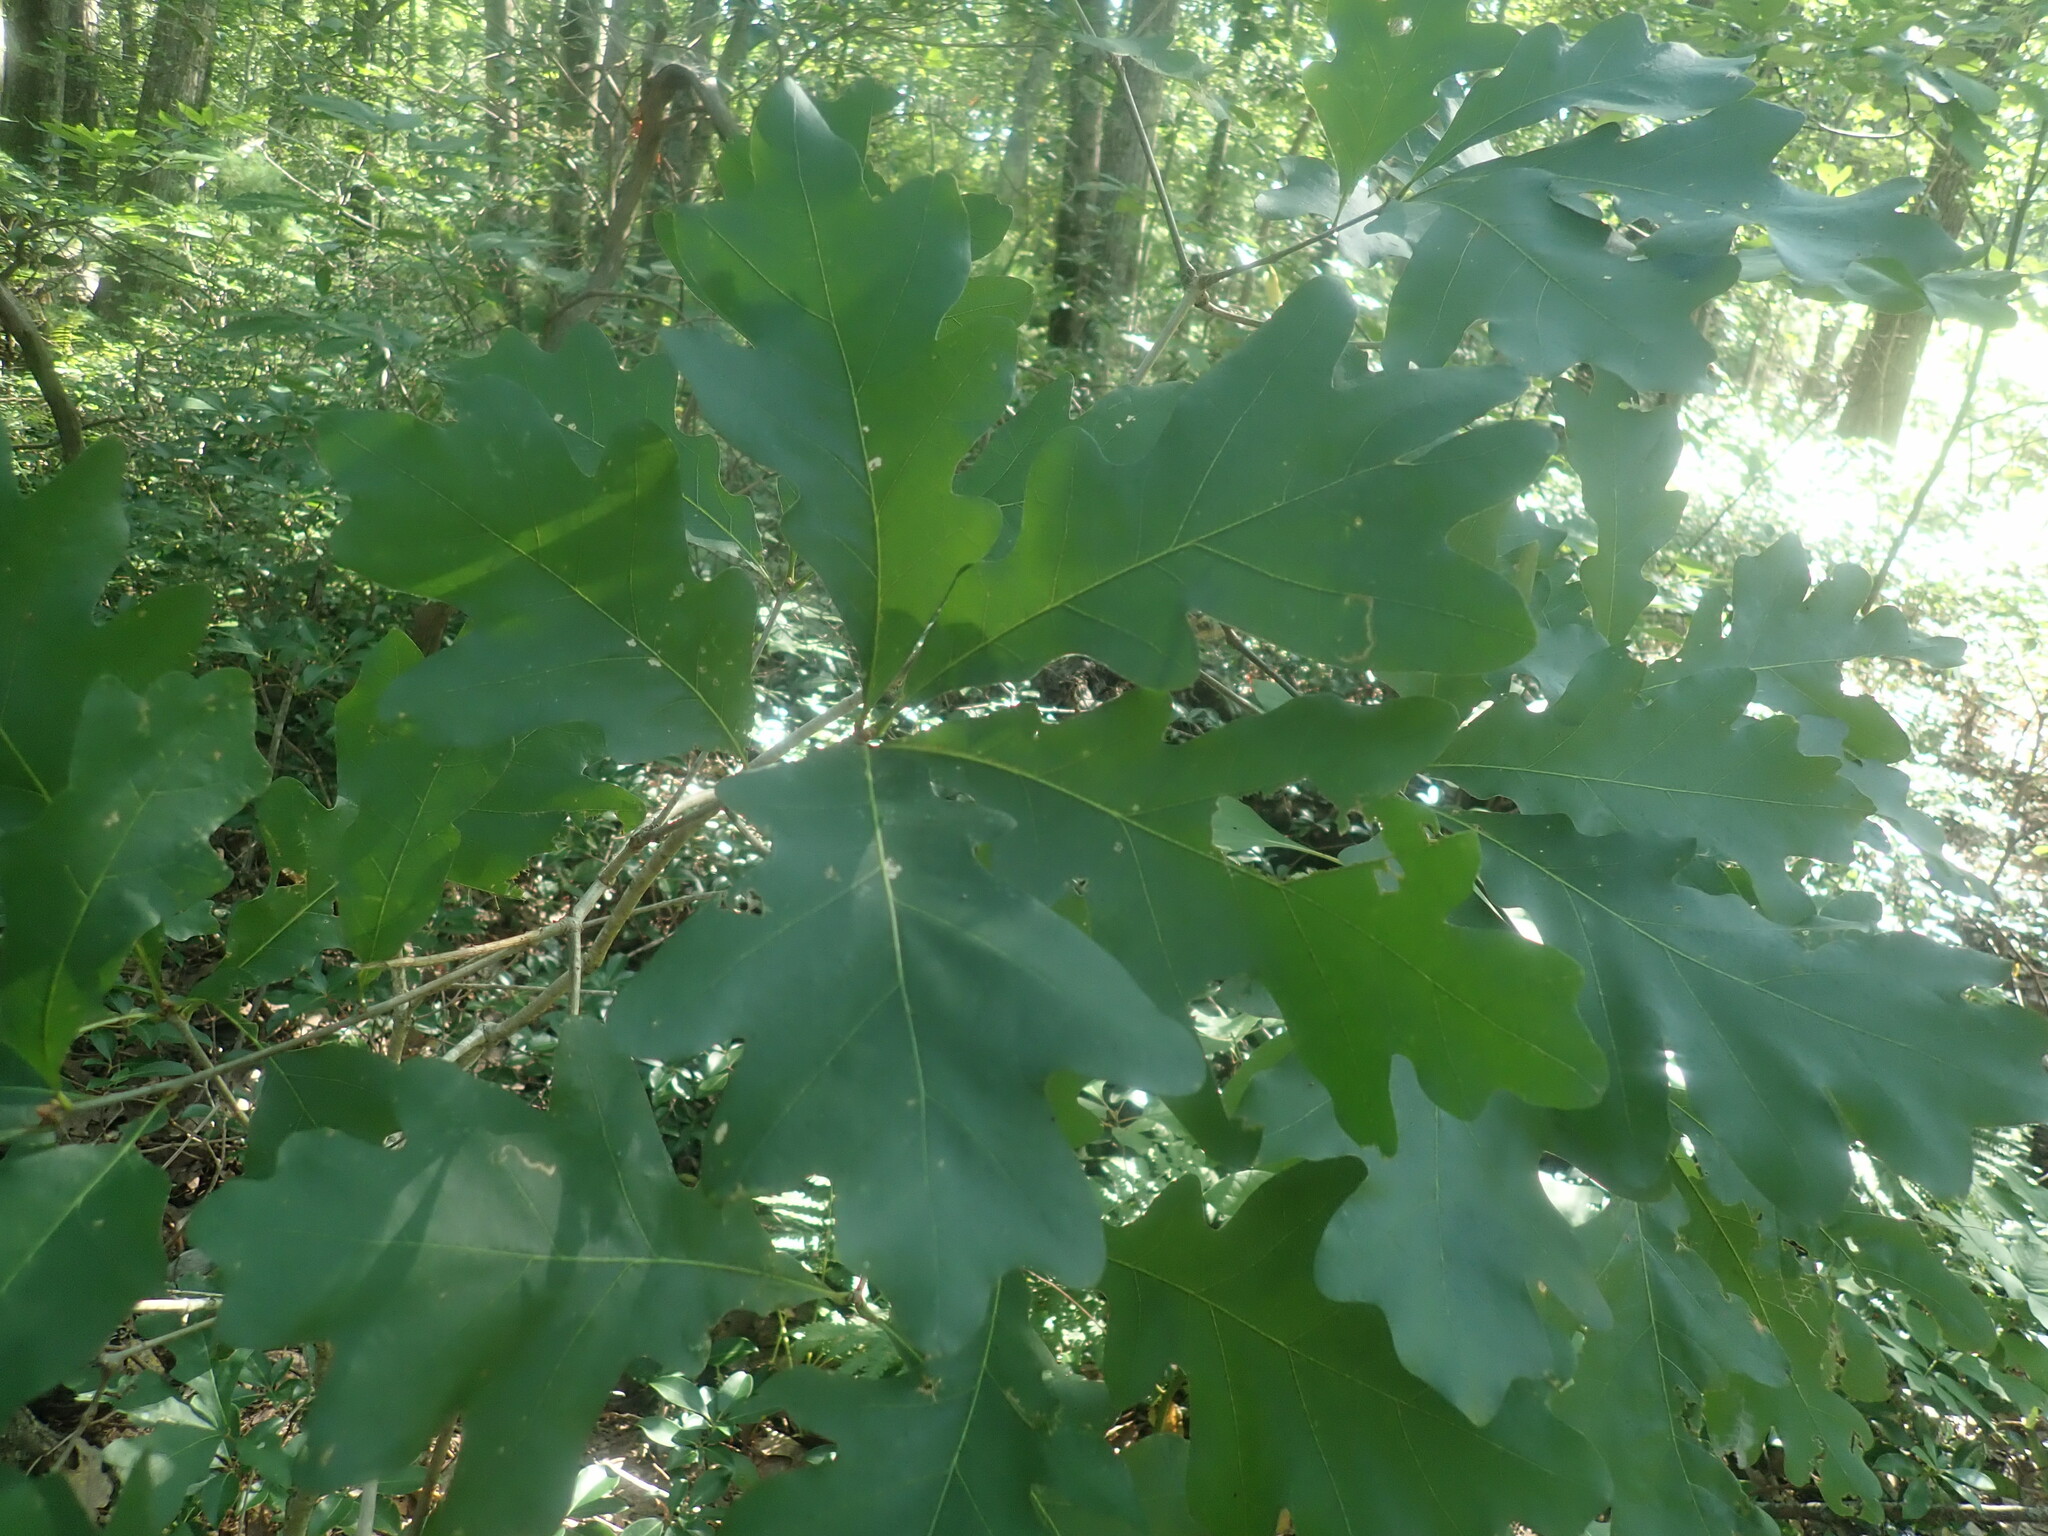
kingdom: Plantae
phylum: Tracheophyta
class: Magnoliopsida
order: Fagales
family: Fagaceae
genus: Quercus
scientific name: Quercus alba
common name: White oak
